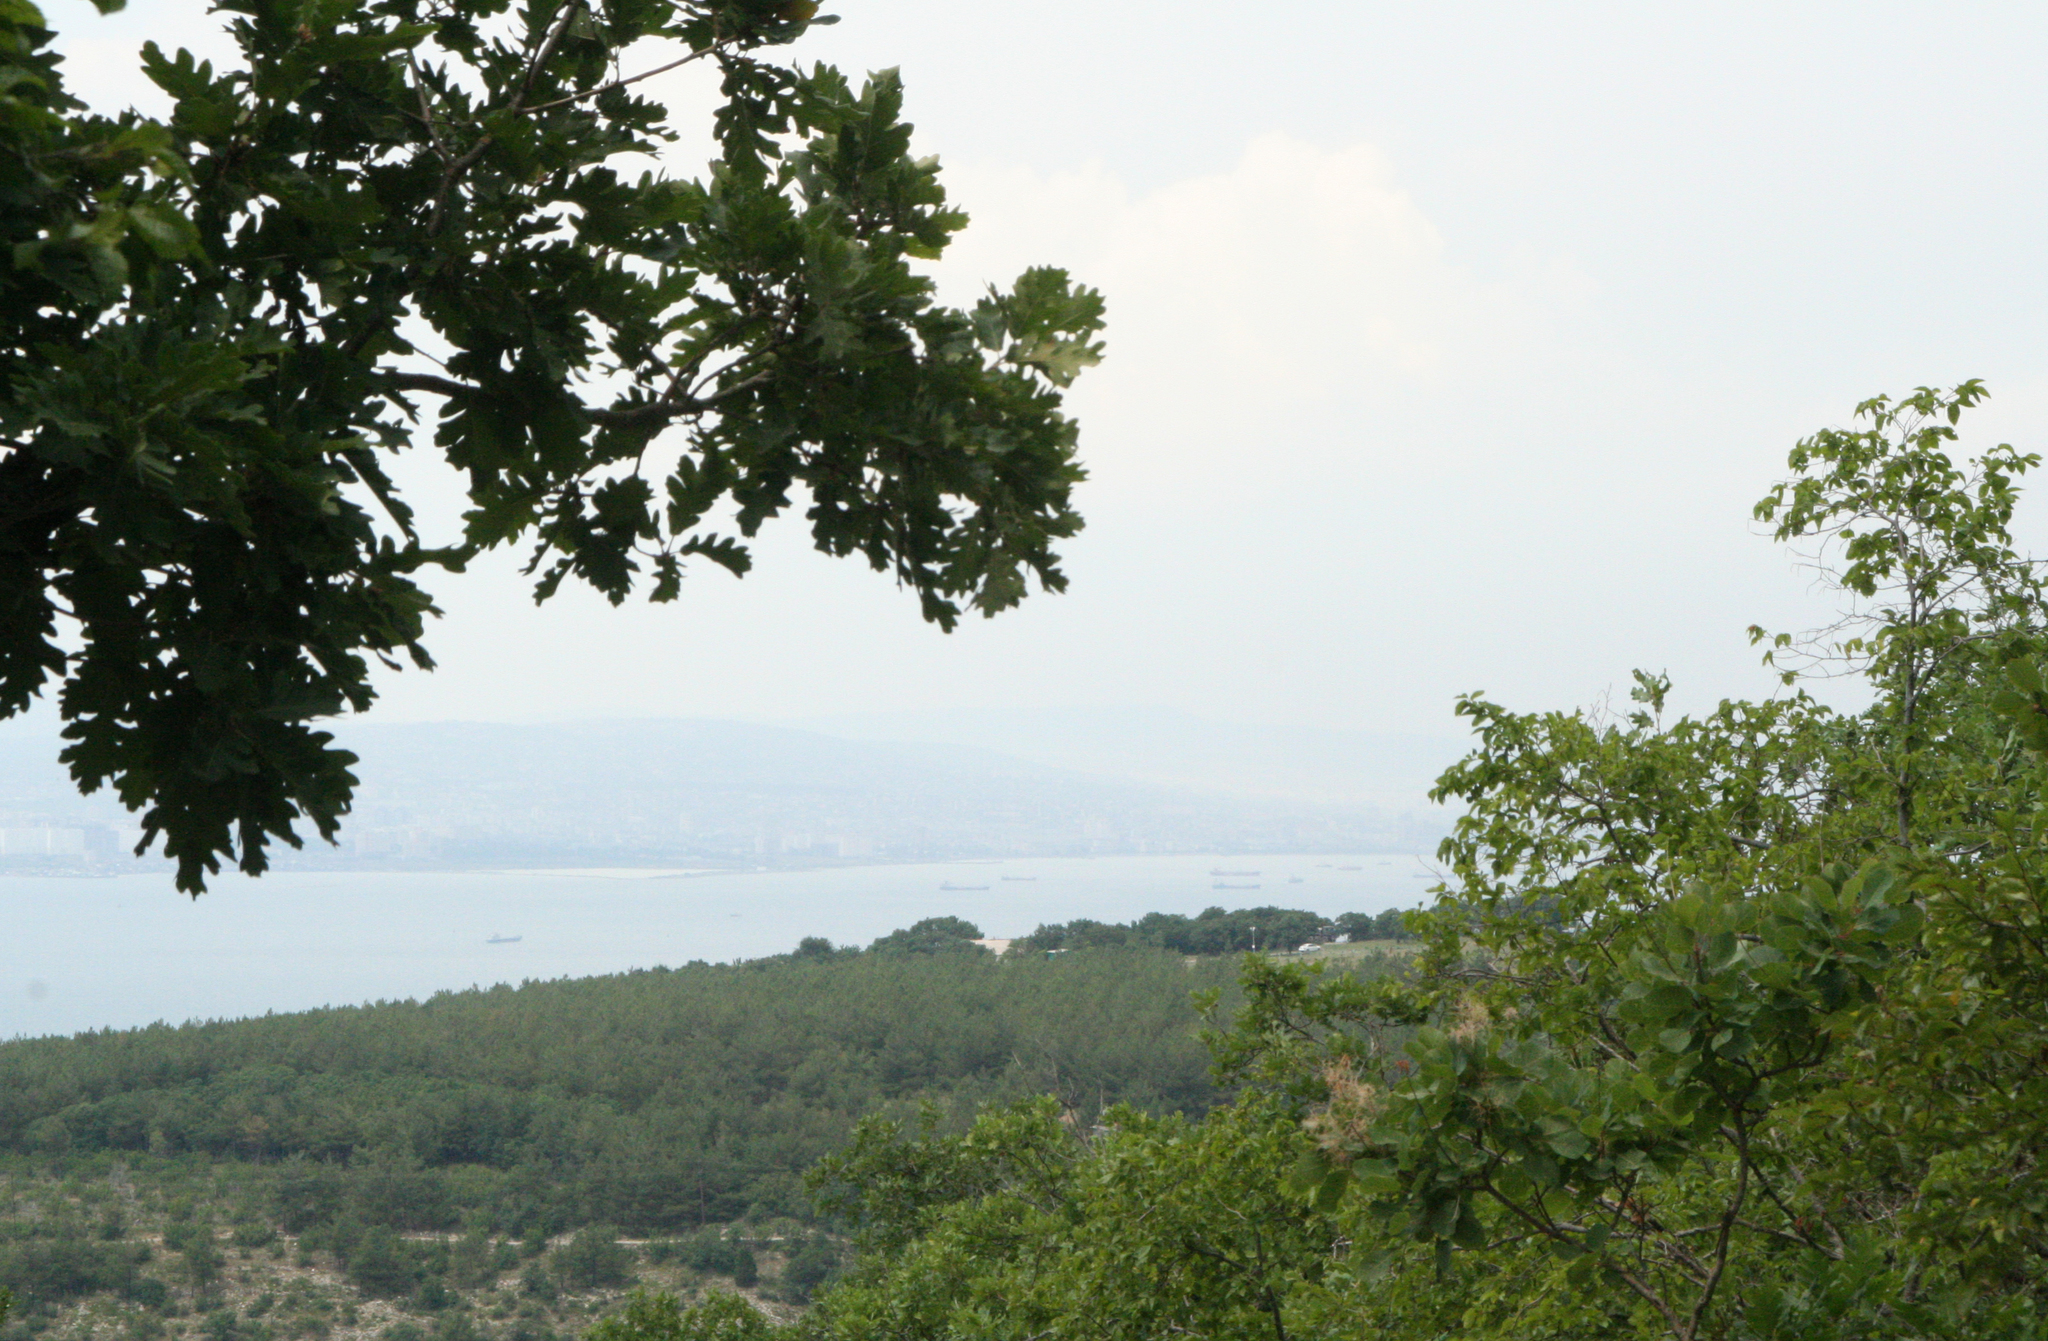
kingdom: Plantae
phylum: Tracheophyta
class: Magnoliopsida
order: Fagales
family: Fagaceae
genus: Quercus
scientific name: Quercus pubescens
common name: Downy oak
